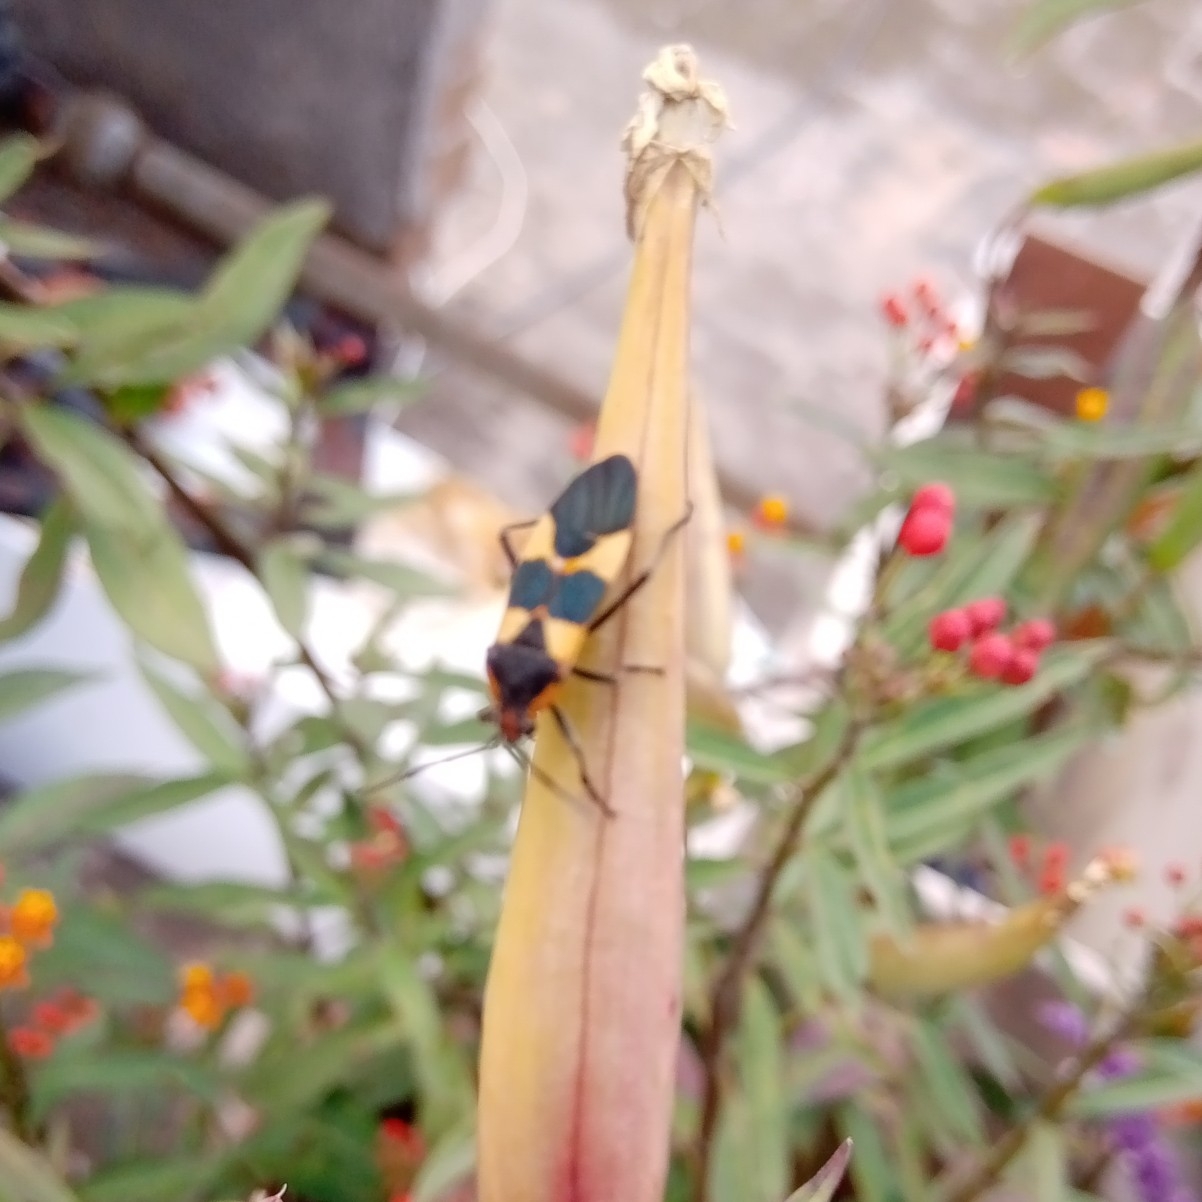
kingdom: Animalia
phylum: Arthropoda
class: Insecta
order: Hemiptera
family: Lygaeidae
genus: Oncopeltus
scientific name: Oncopeltus fasciatus
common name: Large milkweed bug
